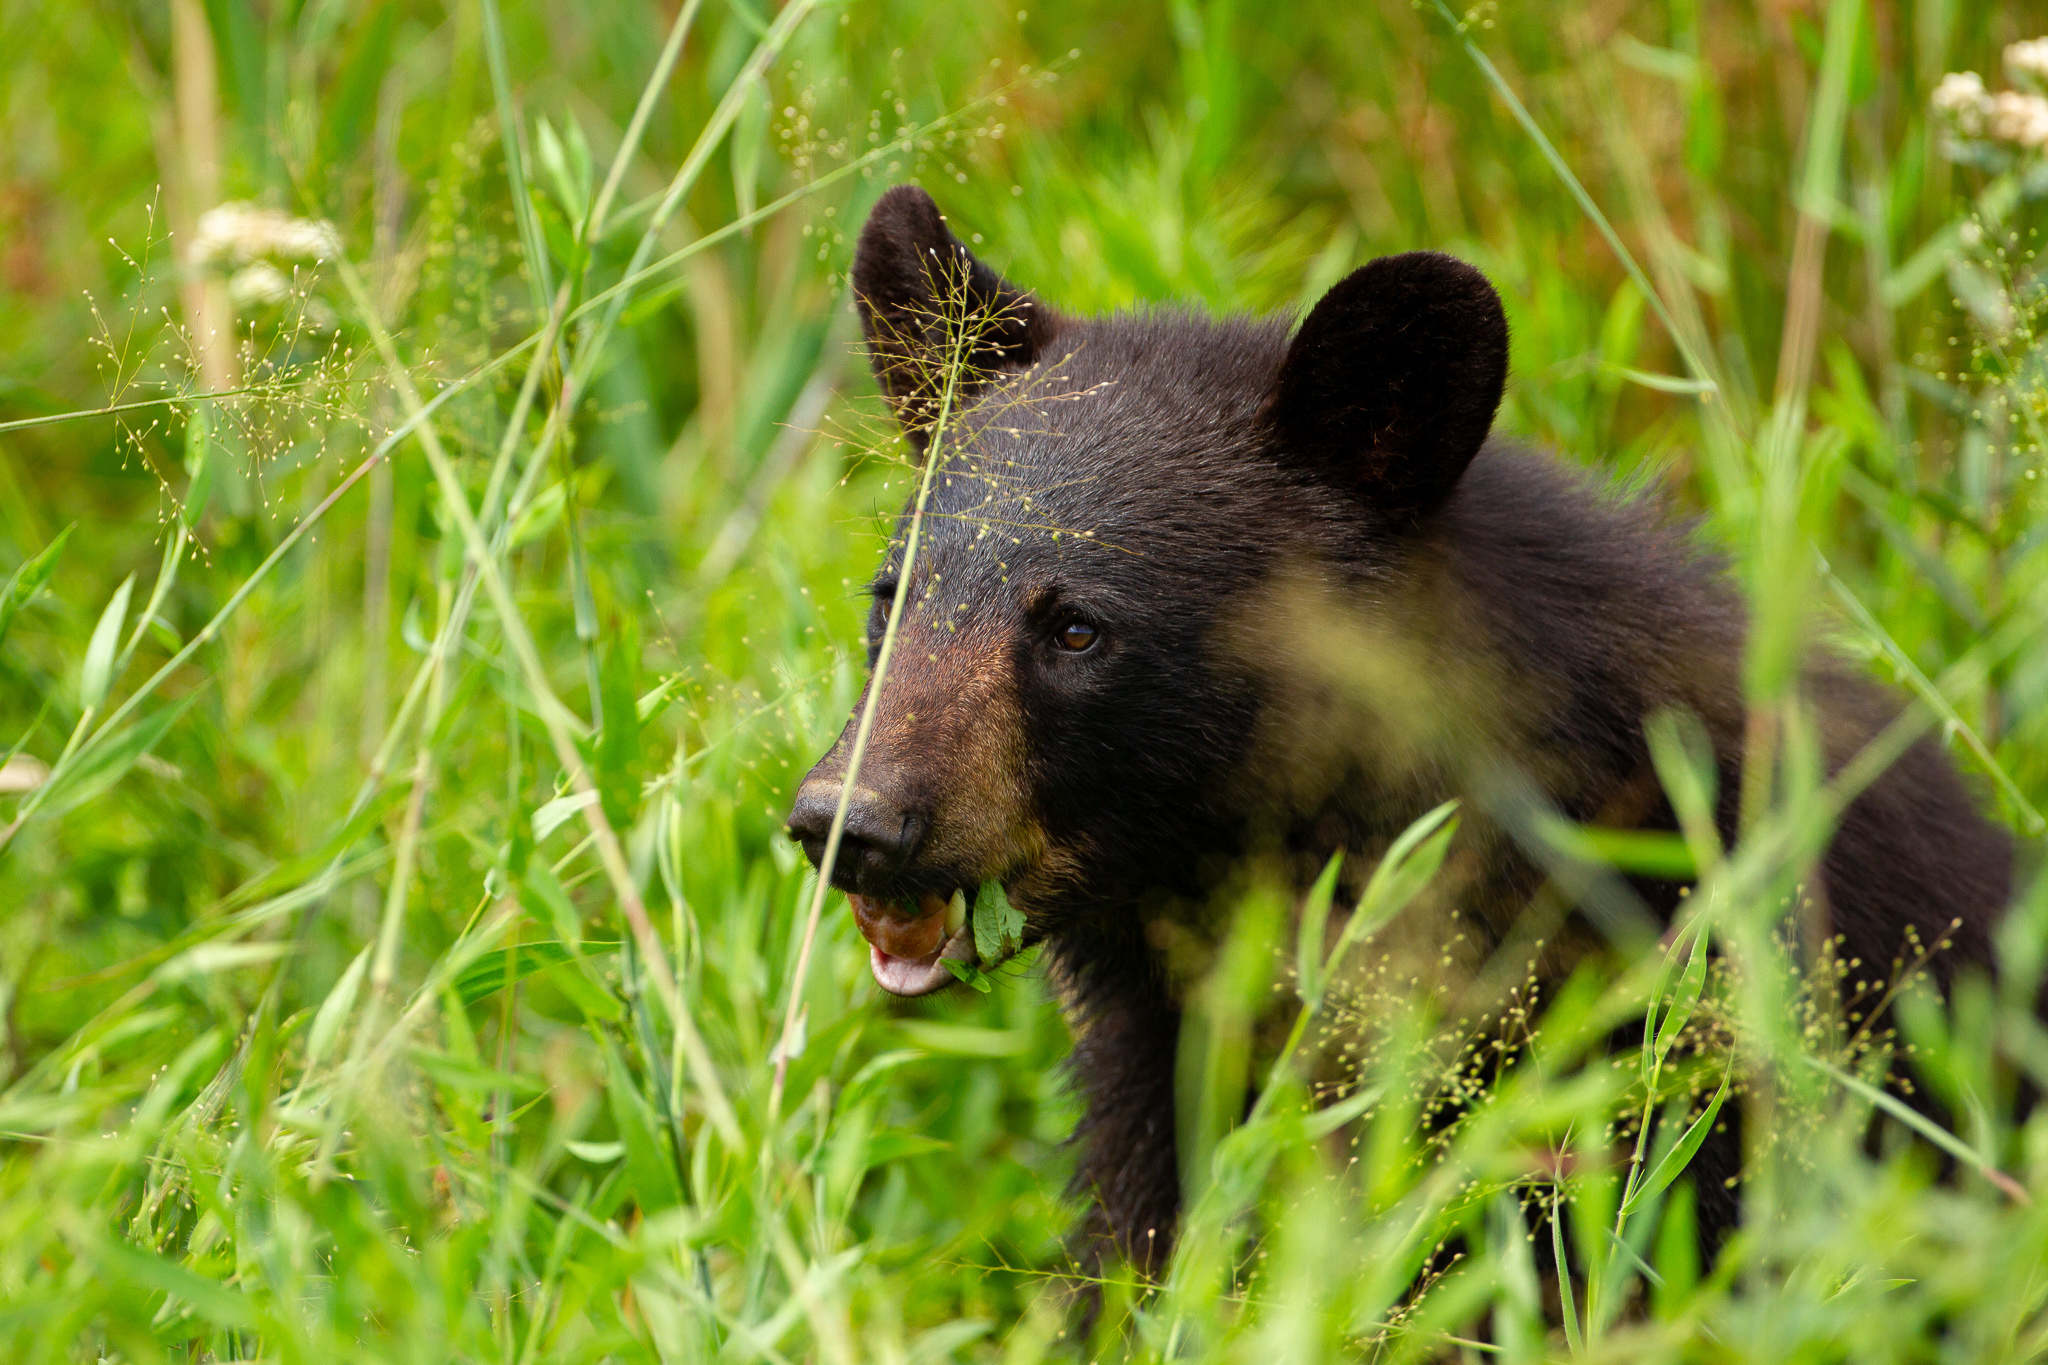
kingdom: Animalia
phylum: Chordata
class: Mammalia
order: Carnivora
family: Ursidae
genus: Ursus
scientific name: Ursus americanus
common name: American black bear
